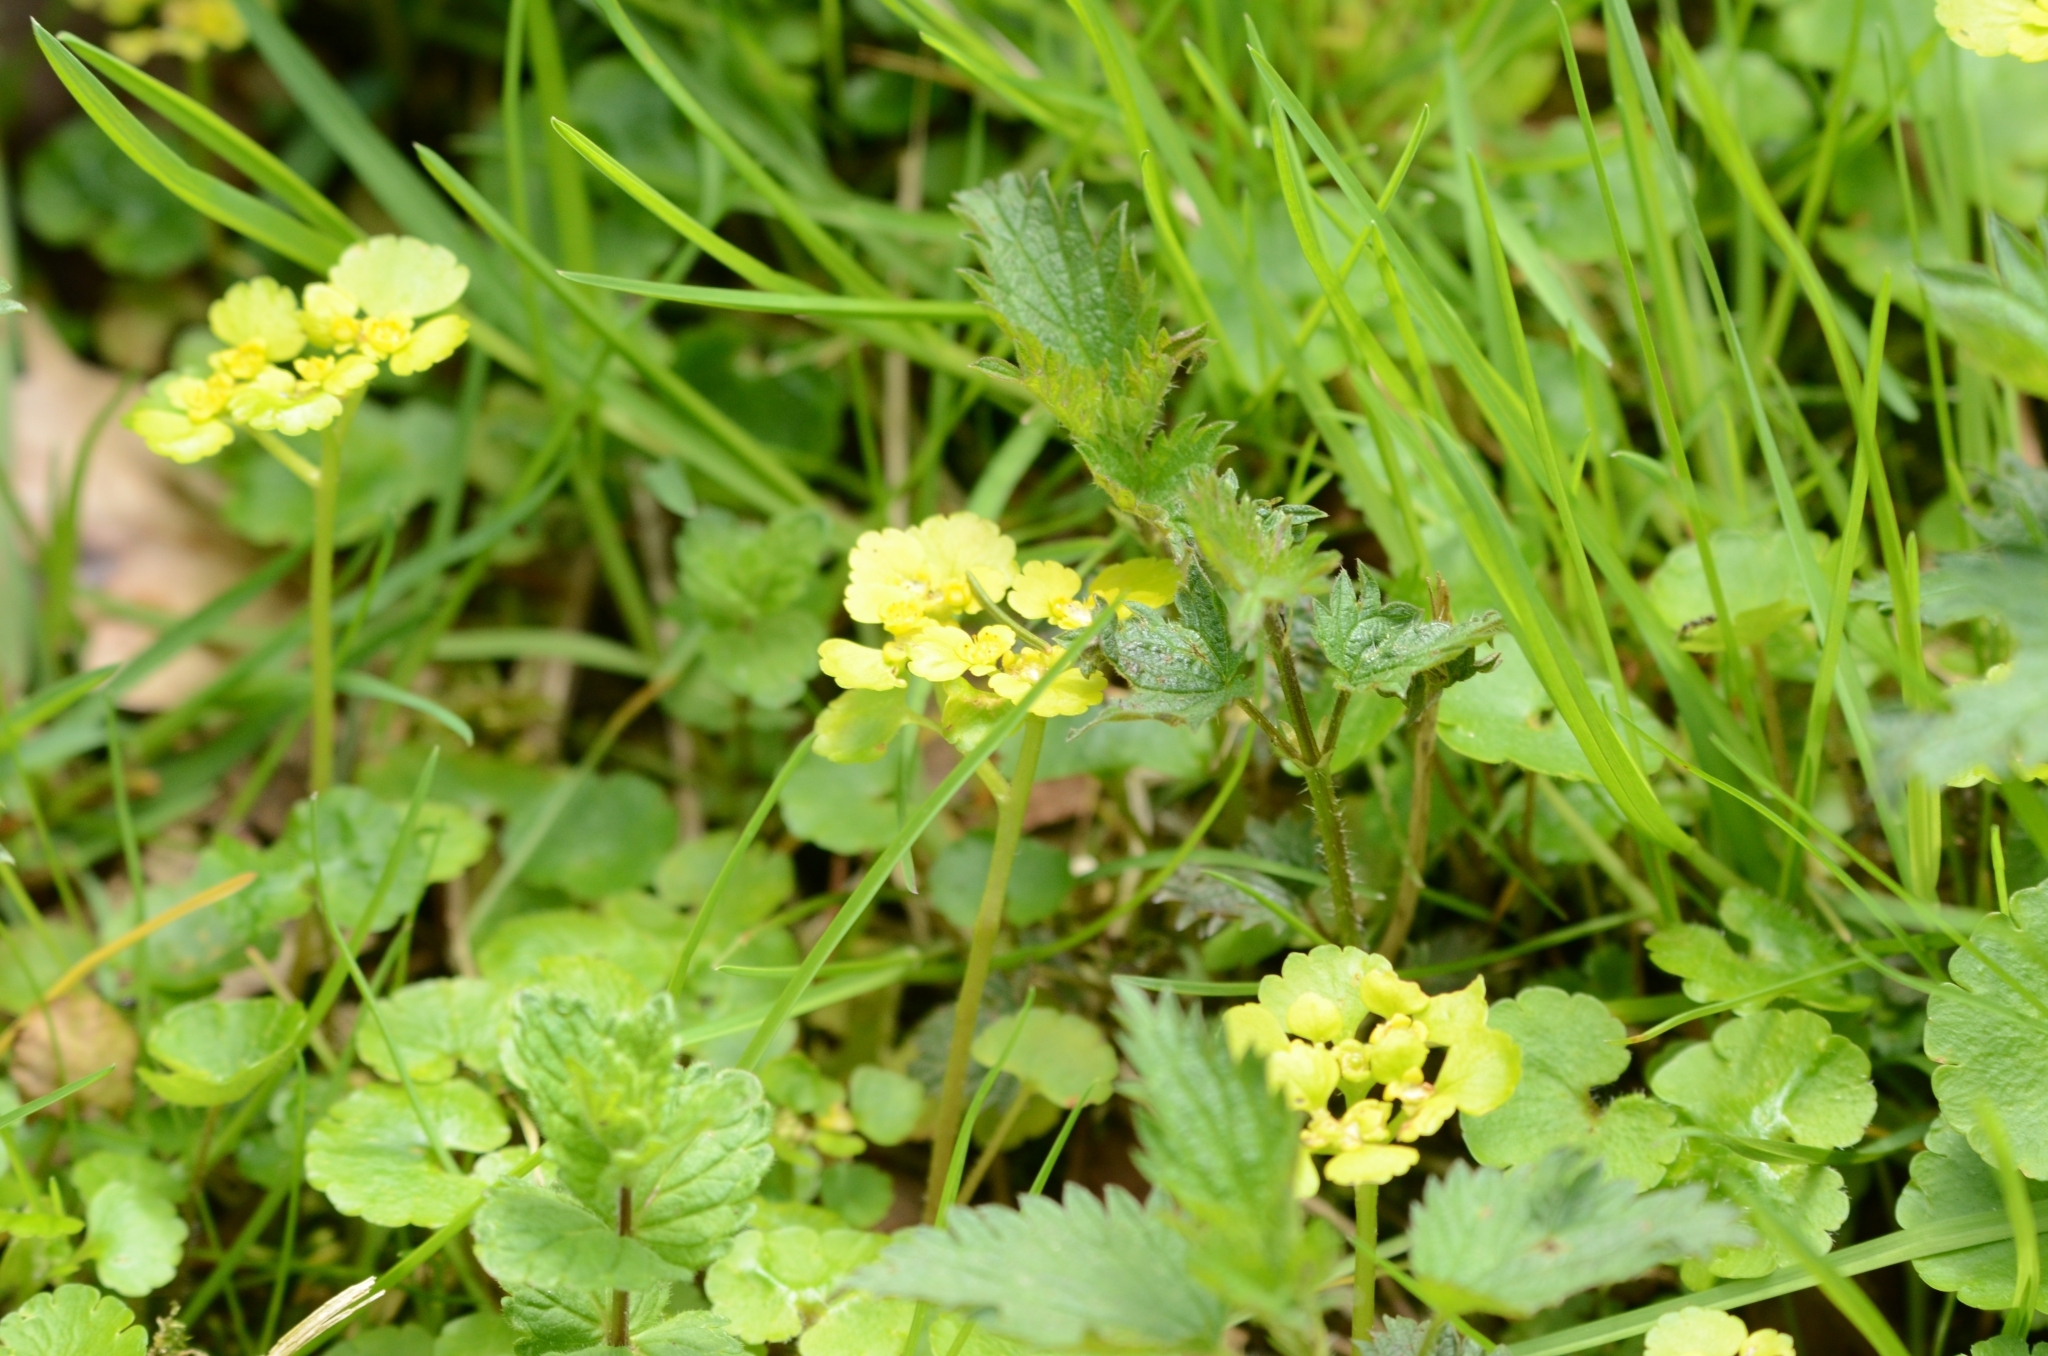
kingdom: Plantae
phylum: Tracheophyta
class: Magnoliopsida
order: Saxifragales
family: Saxifragaceae
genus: Chrysosplenium
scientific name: Chrysosplenium alternifolium
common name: Alternate-leaved golden-saxifrage
